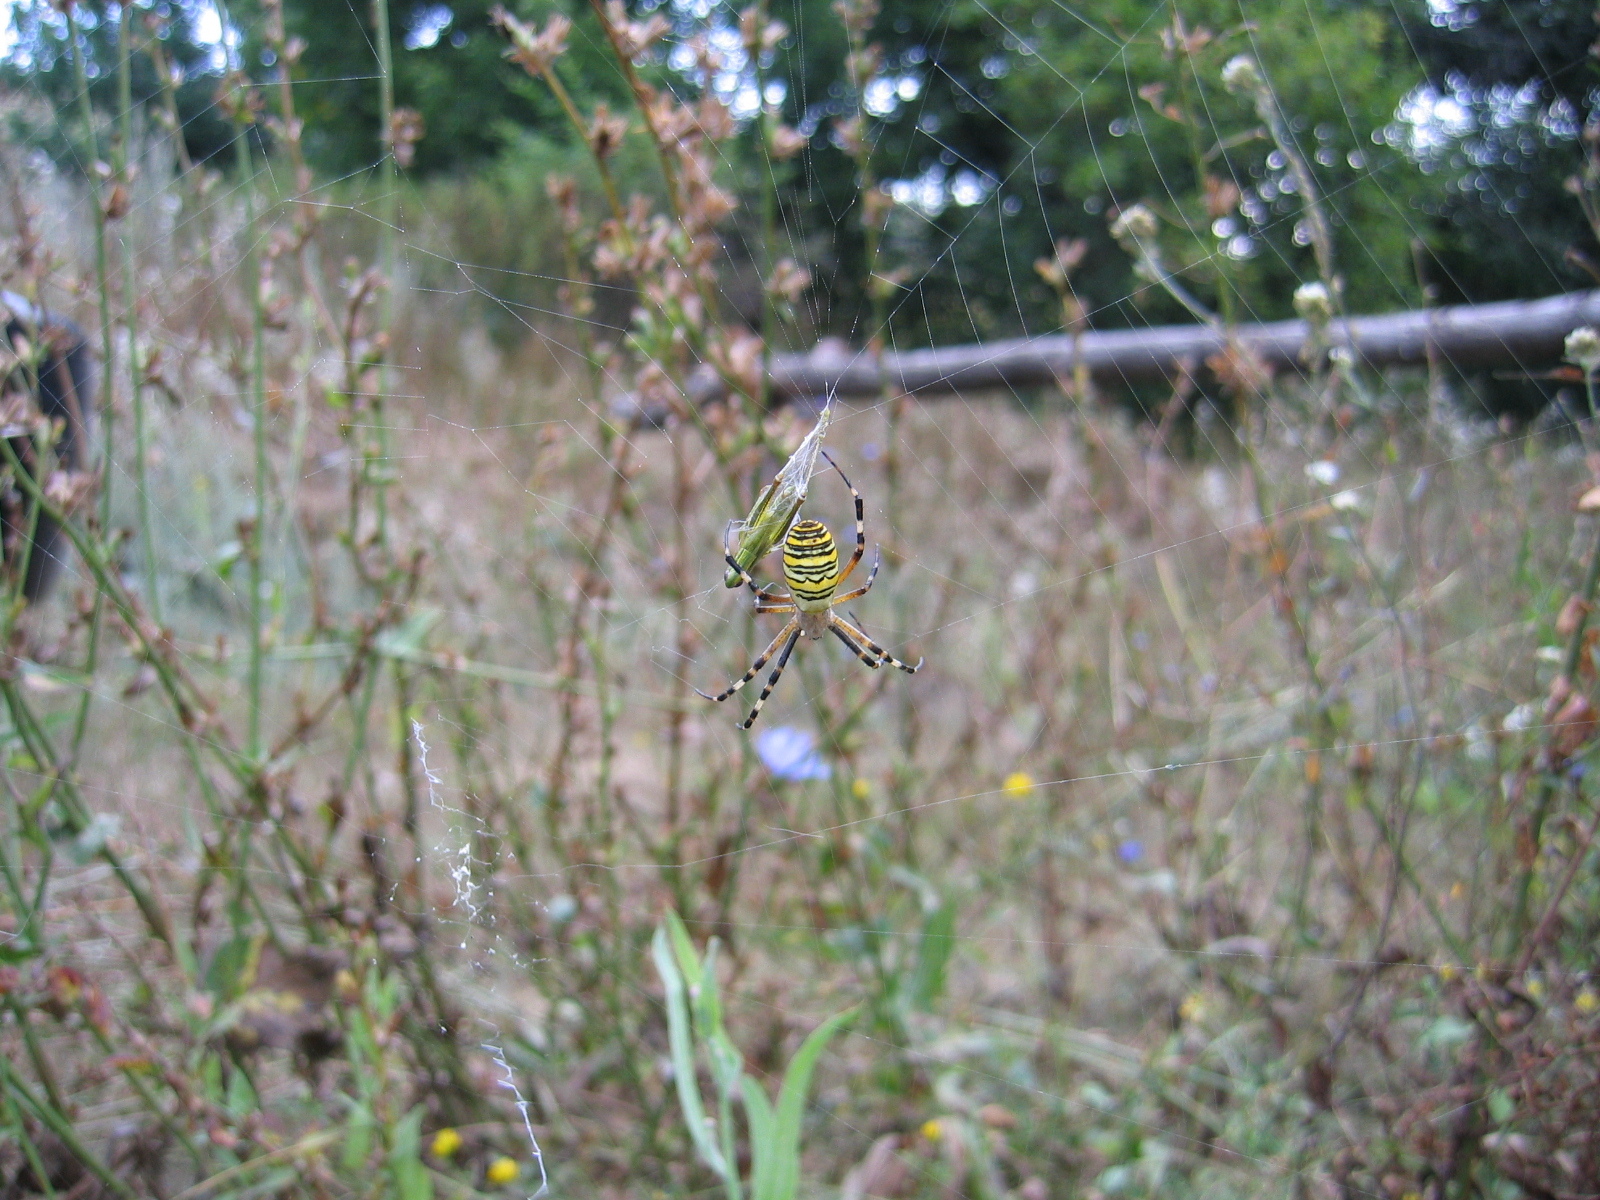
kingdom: Animalia
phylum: Arthropoda
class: Arachnida
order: Araneae
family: Araneidae
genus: Argiope
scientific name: Argiope bruennichi
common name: Wasp spider
